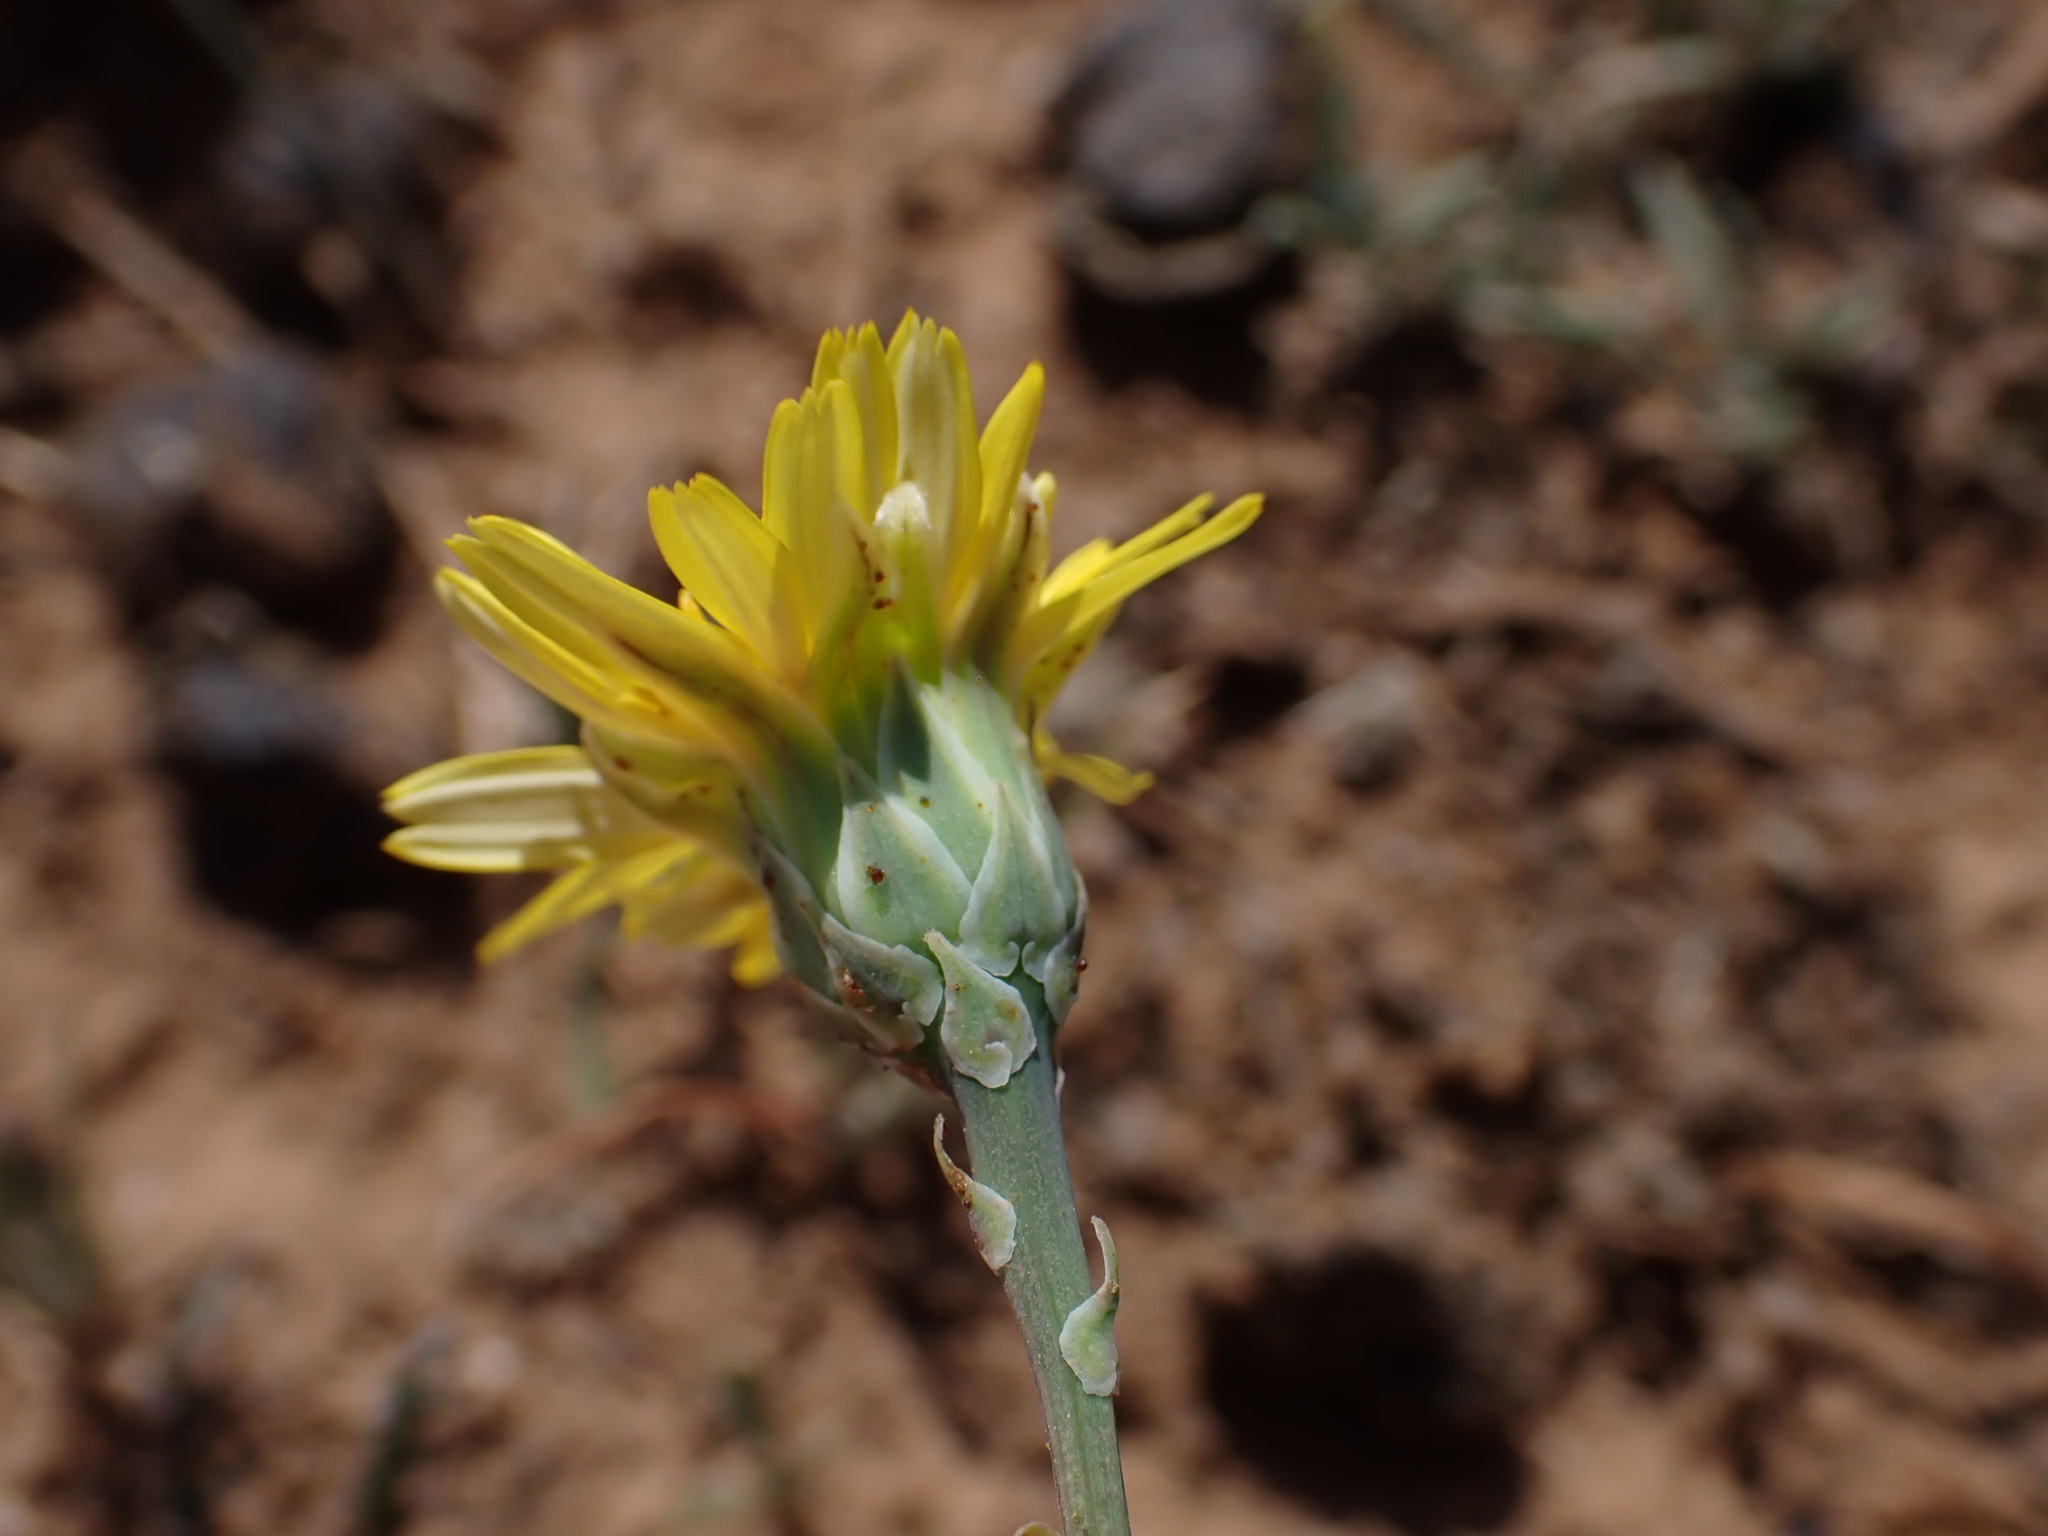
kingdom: Plantae
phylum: Tracheophyta
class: Magnoliopsida
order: Asterales
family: Asteraceae
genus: Reichardia
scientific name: Reichardia picroides
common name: Common brighteyes
